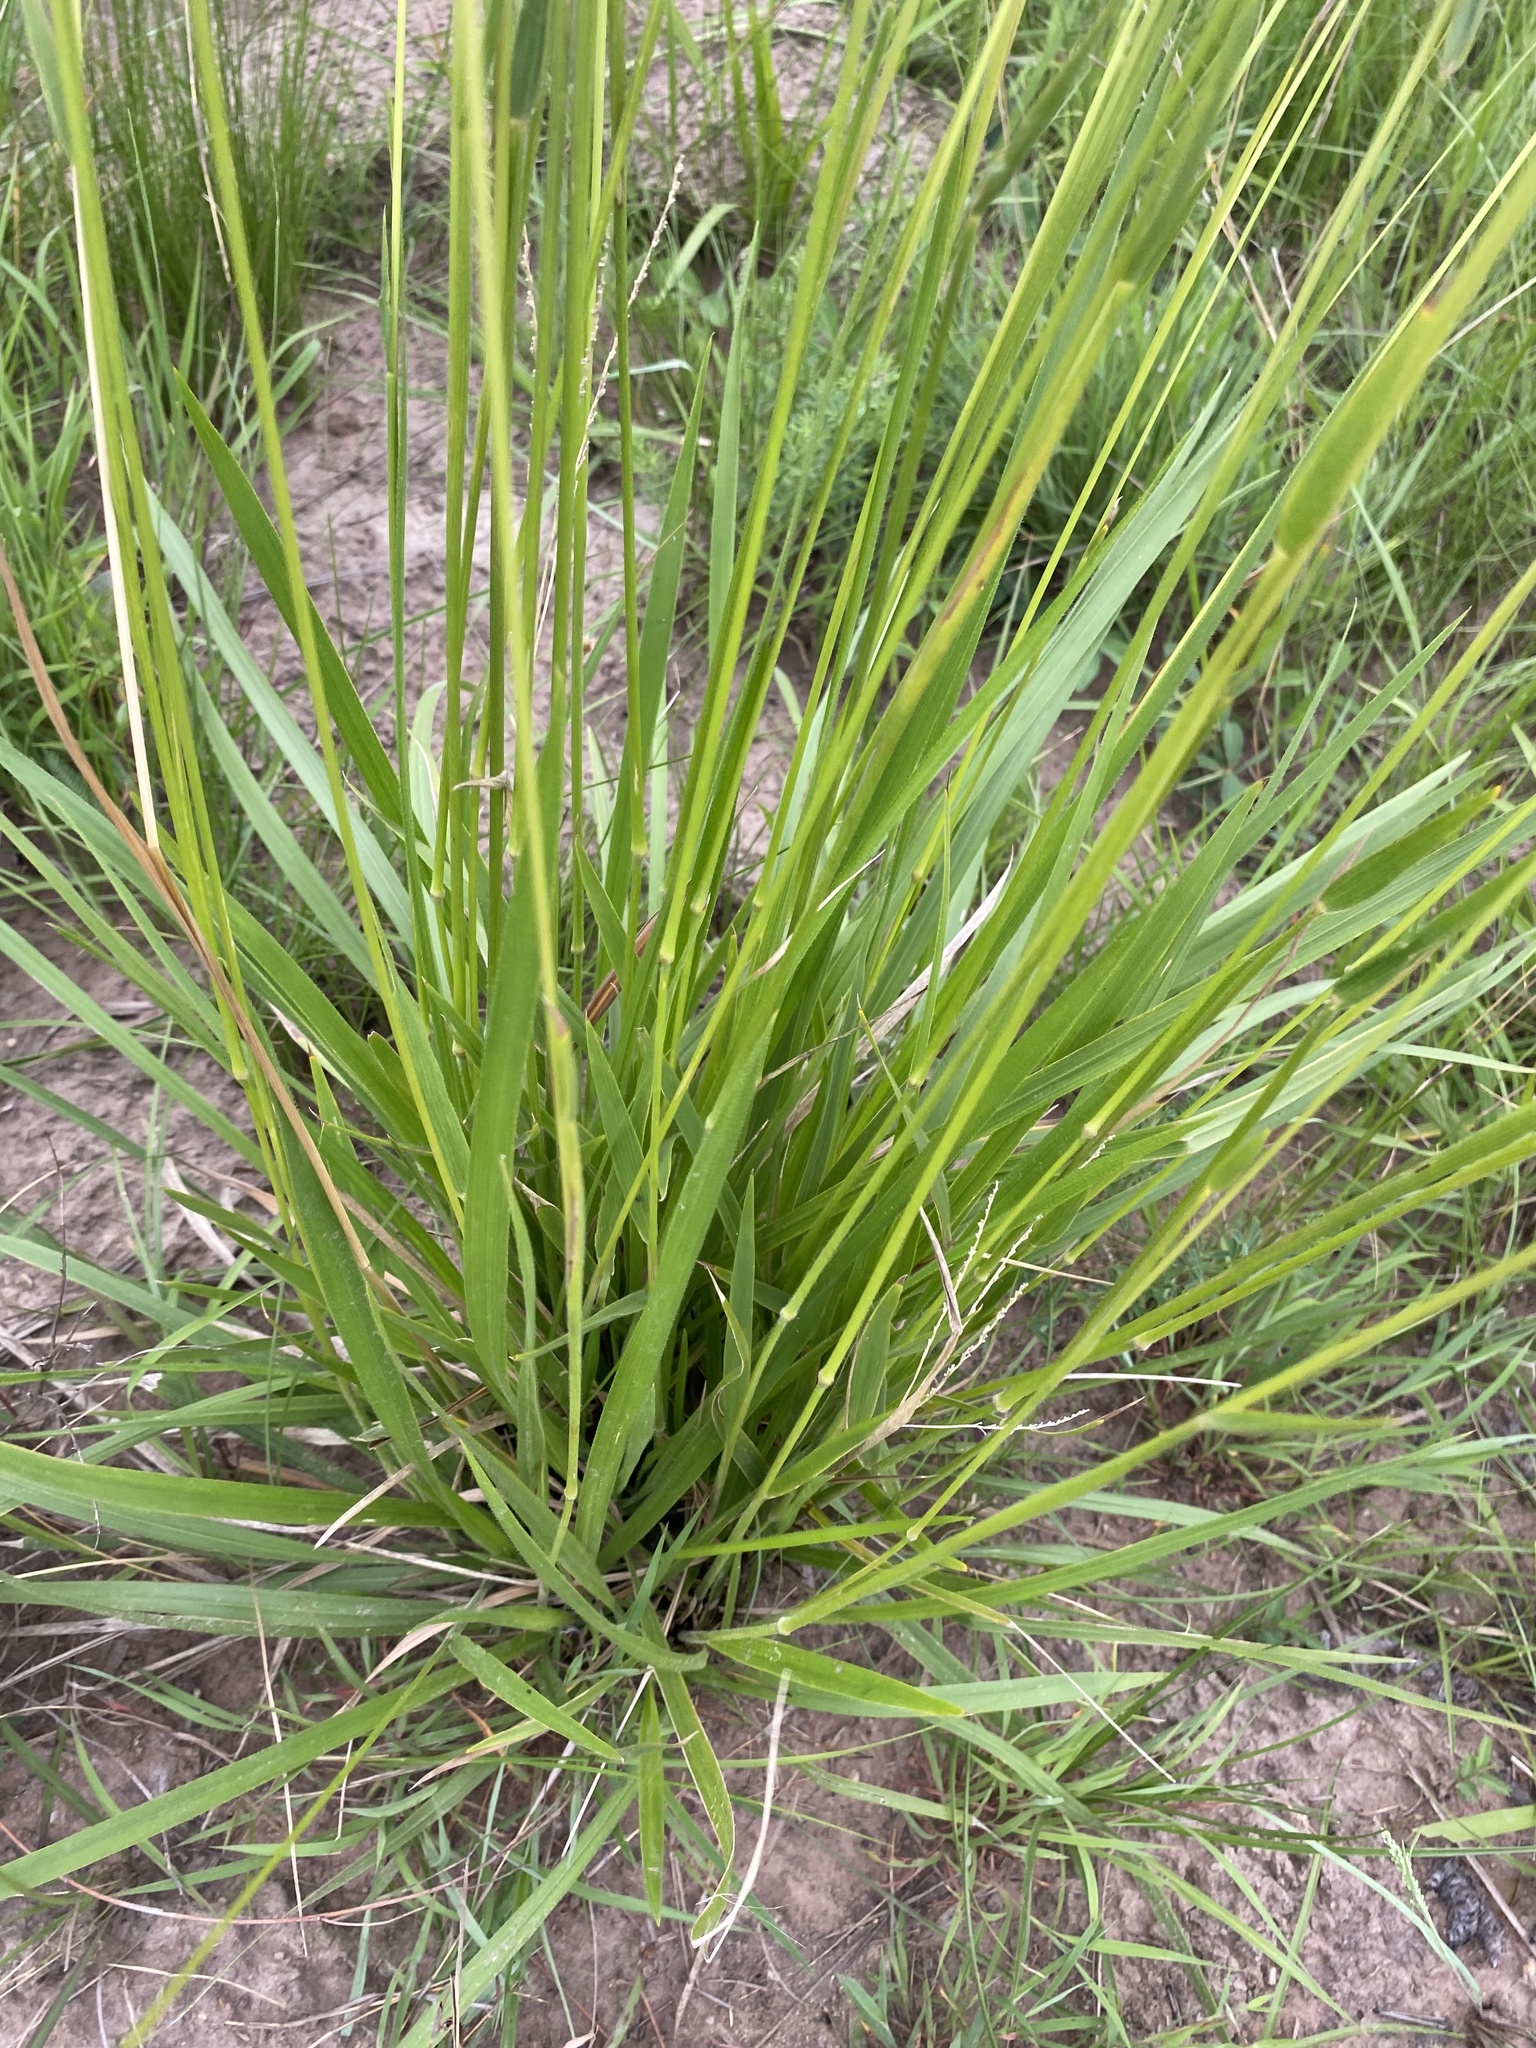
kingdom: Plantae
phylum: Tracheophyta
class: Liliopsida
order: Poales
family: Poaceae
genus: Alloteropsis
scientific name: Alloteropsis semialata
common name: Cockatoo grass
